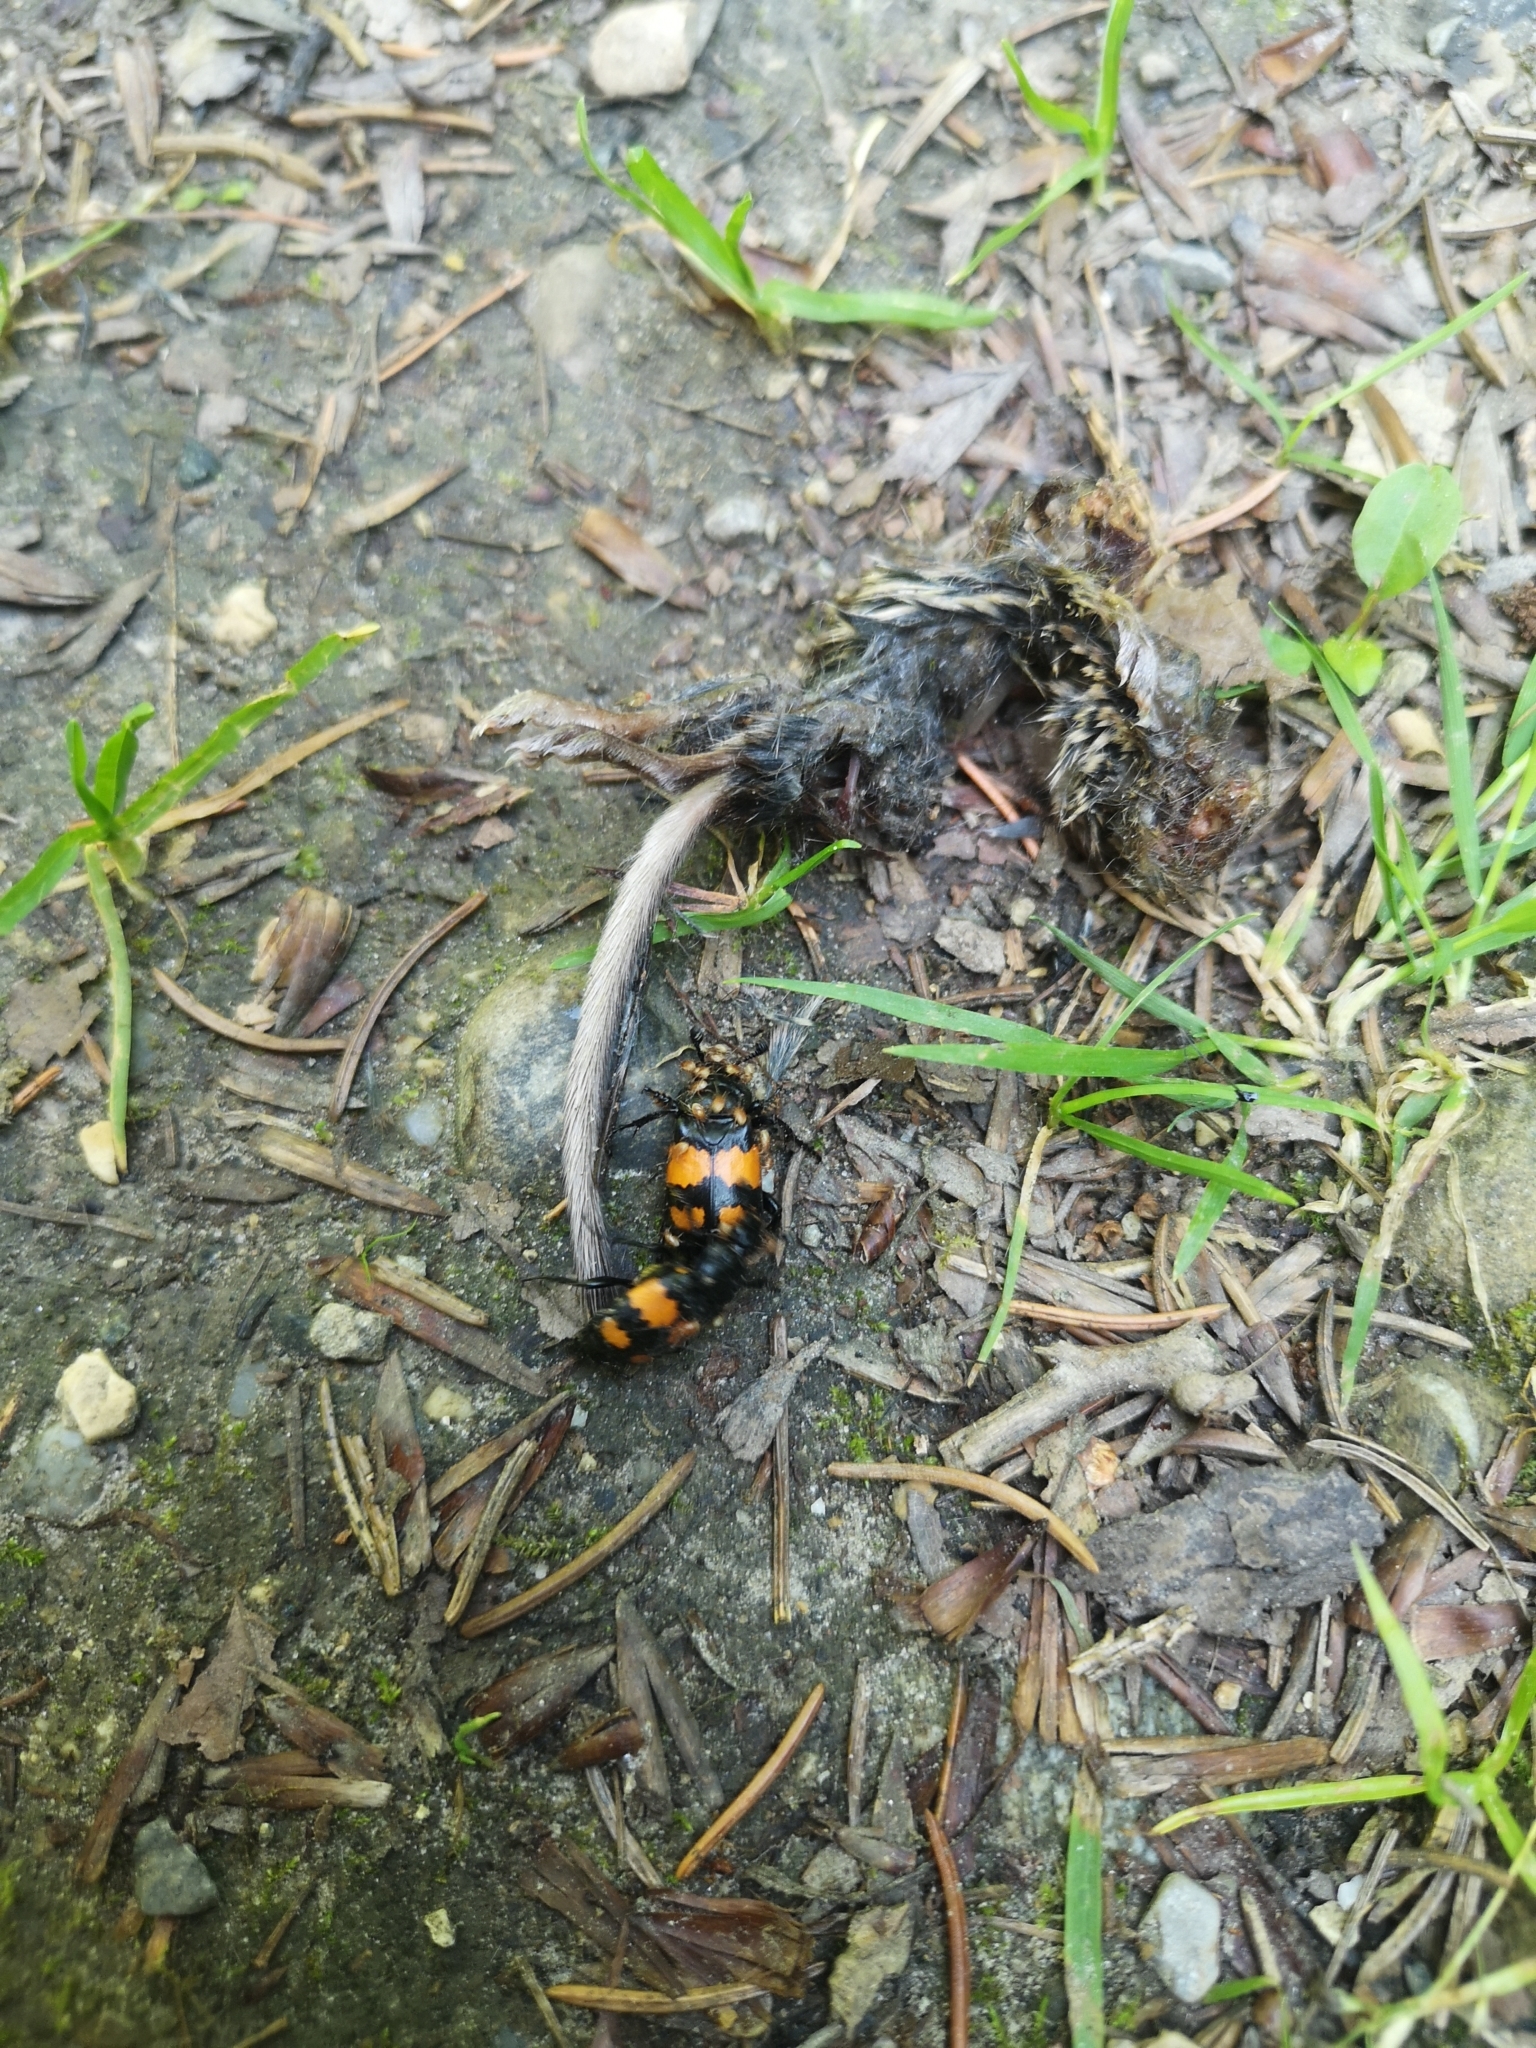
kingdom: Animalia
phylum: Arthropoda
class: Insecta
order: Coleoptera
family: Staphylinidae
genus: Nicrophorus
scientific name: Nicrophorus vespilloides
